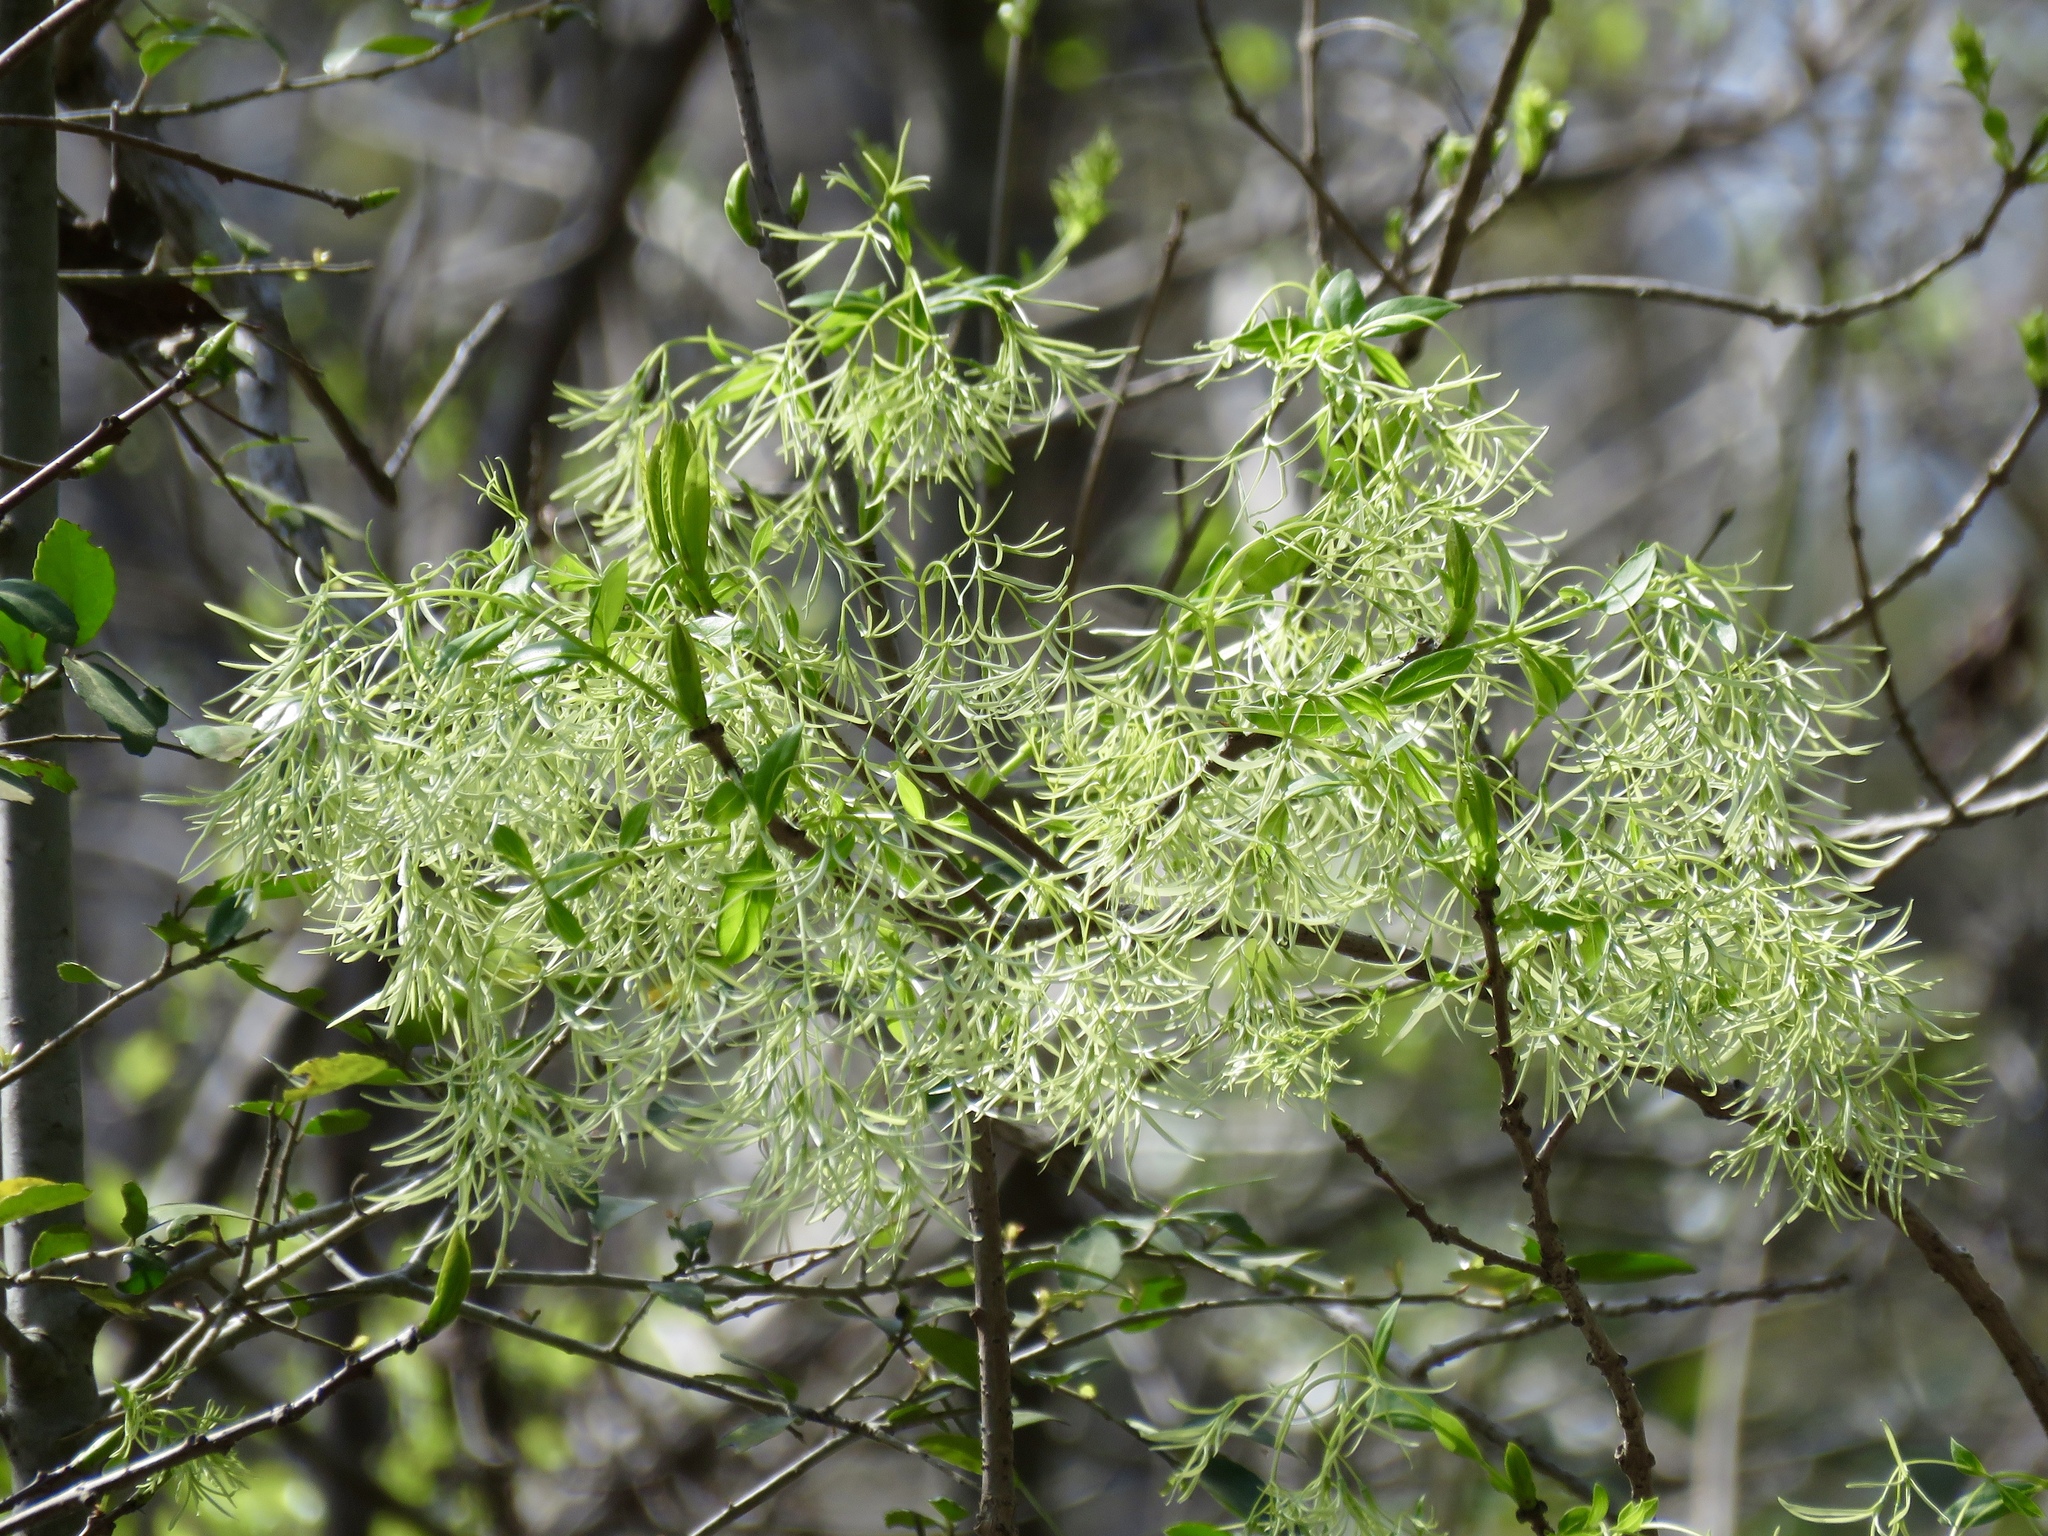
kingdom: Plantae
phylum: Tracheophyta
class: Magnoliopsida
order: Lamiales
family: Oleaceae
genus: Chionanthus
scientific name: Chionanthus virginicus
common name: American fringetree
